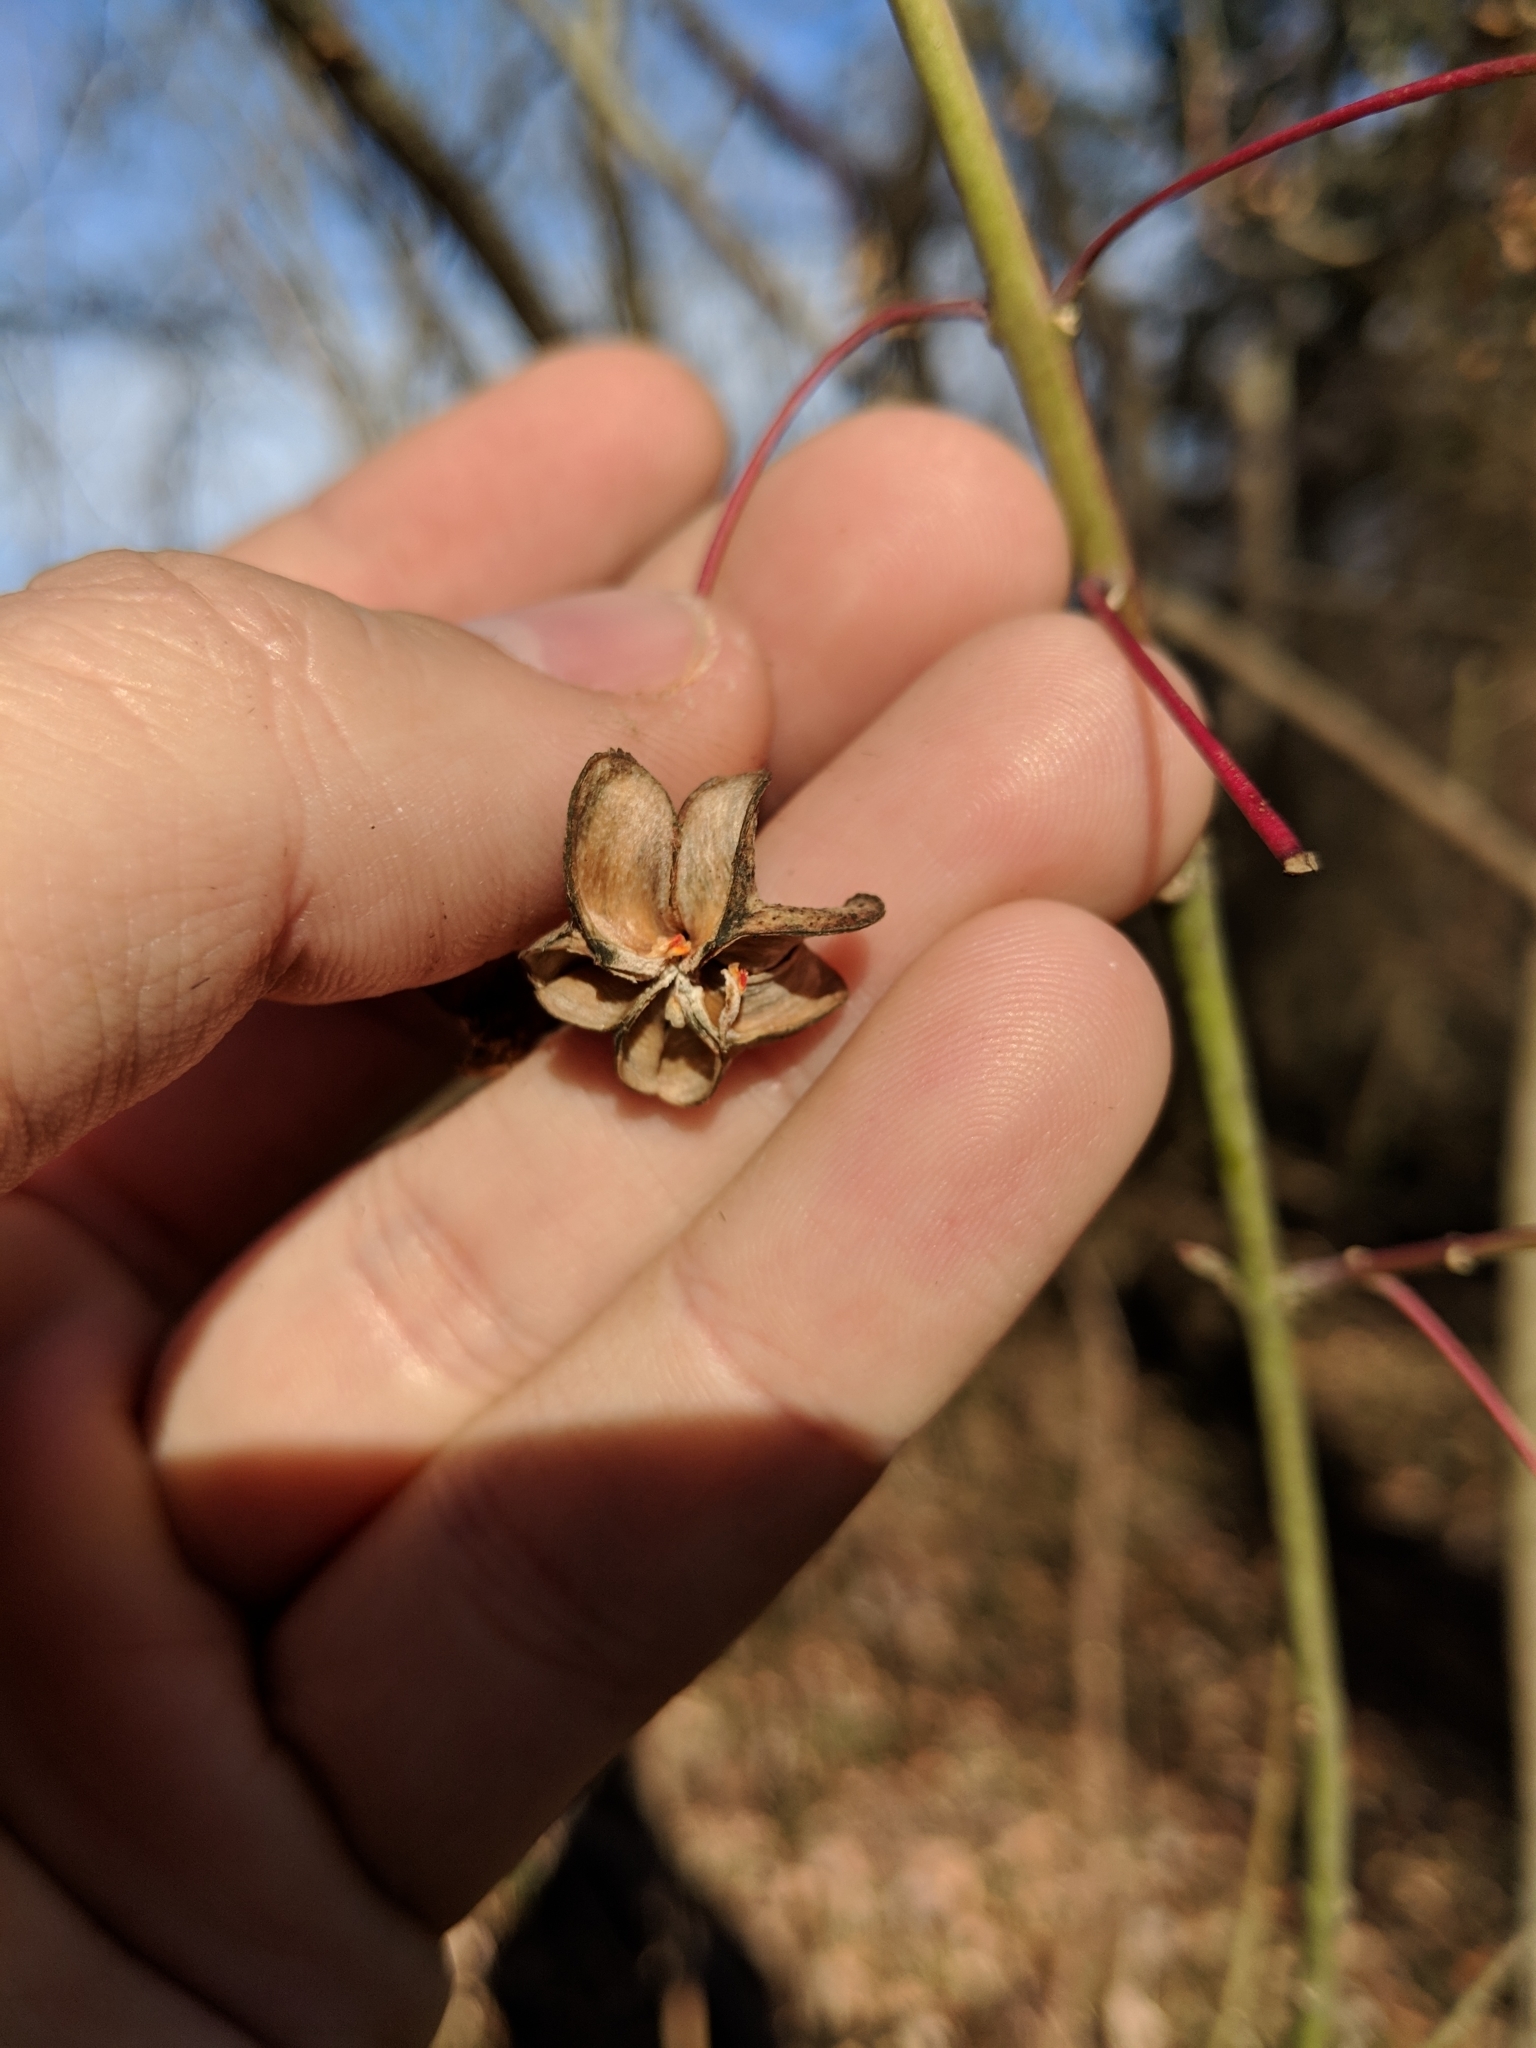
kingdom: Plantae
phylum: Tracheophyta
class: Magnoliopsida
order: Celastrales
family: Celastraceae
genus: Euonymus
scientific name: Euonymus atropurpureus
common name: Eastern wahoo
